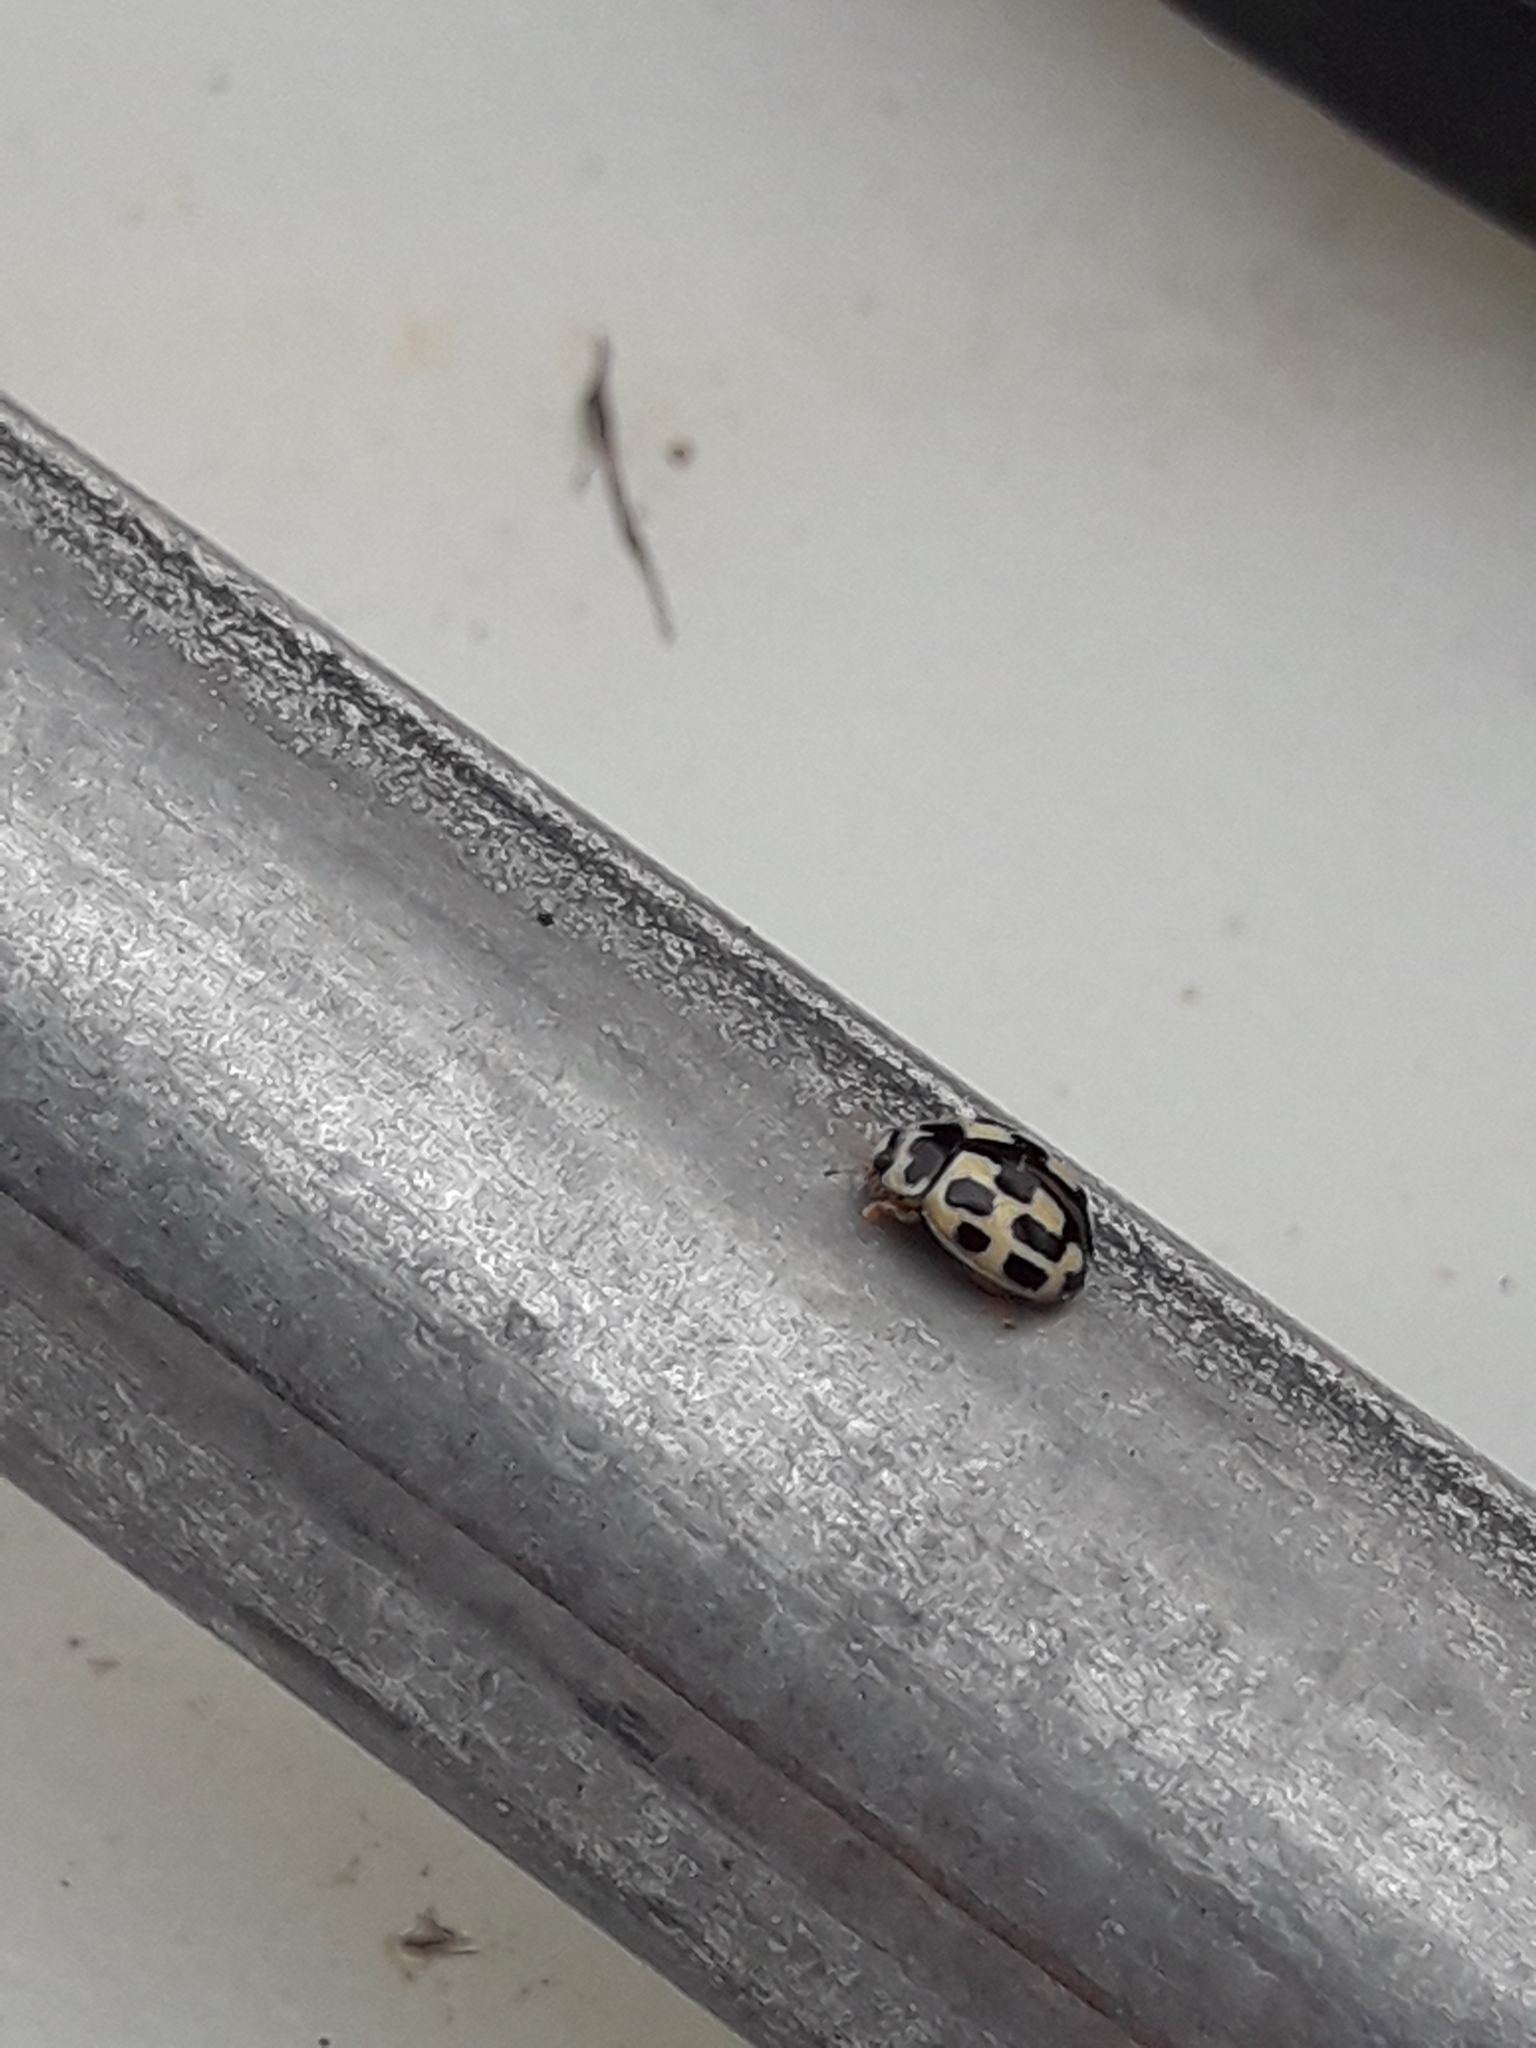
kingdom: Animalia
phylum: Arthropoda
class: Insecta
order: Coleoptera
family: Coccinellidae
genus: Propylaea
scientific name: Propylaea quatuordecimpunctata
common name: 14-spotted ladybird beetle
